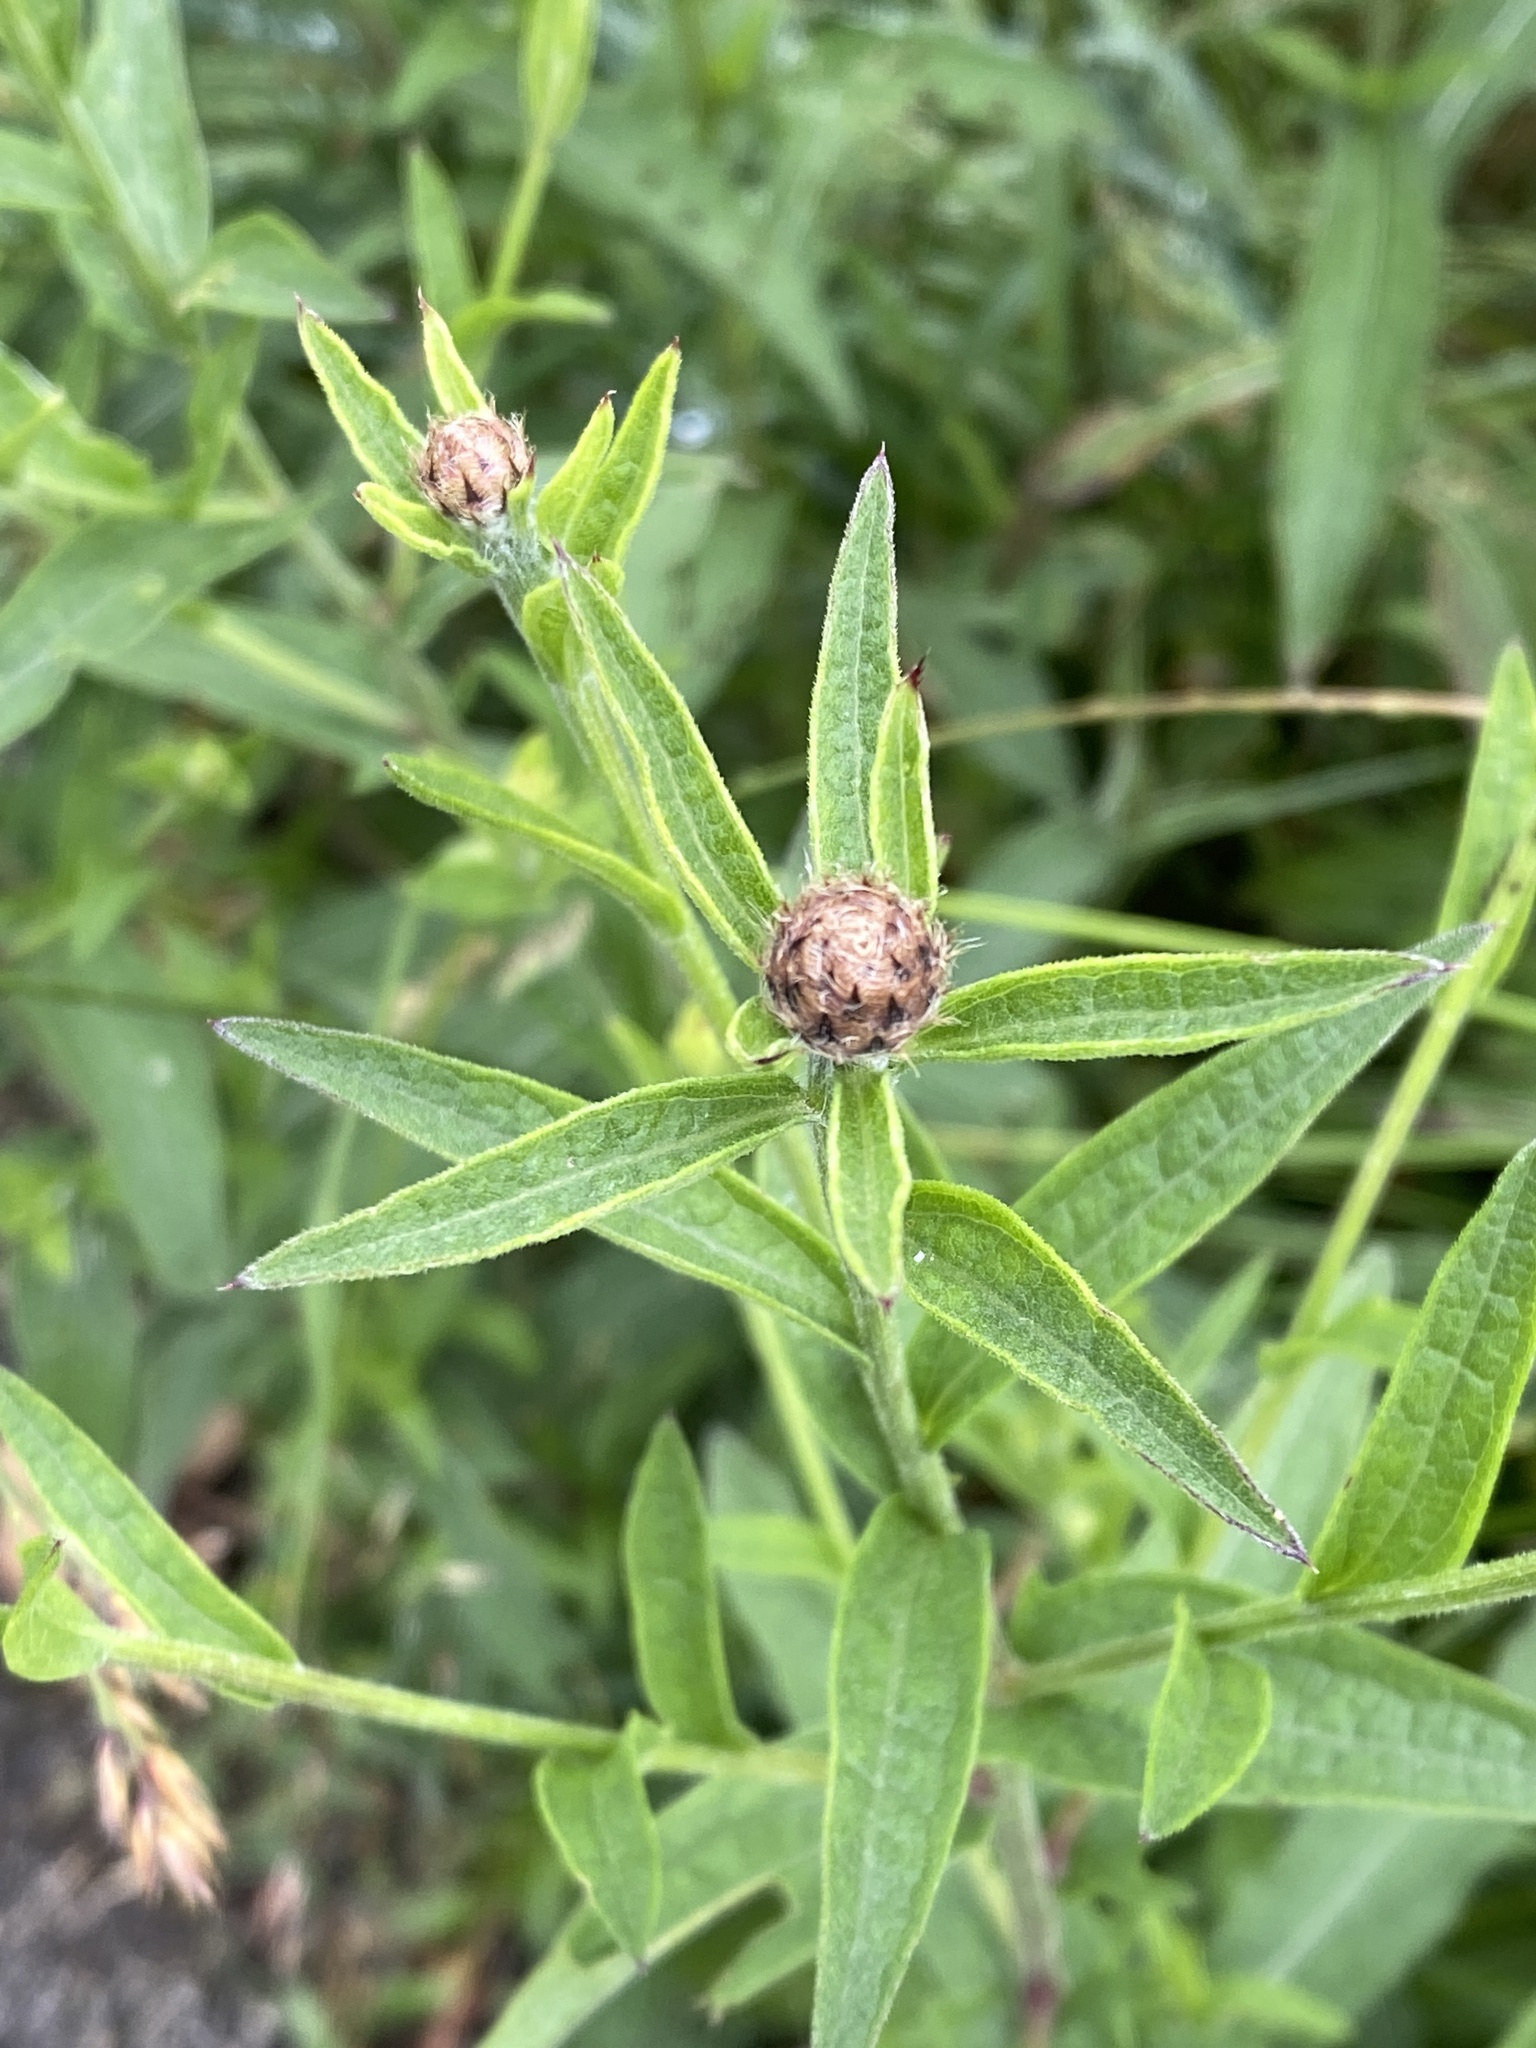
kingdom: Plantae
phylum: Tracheophyta
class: Magnoliopsida
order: Asterales
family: Asteraceae
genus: Centaurea
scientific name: Centaurea nigra
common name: Lesser knapweed
